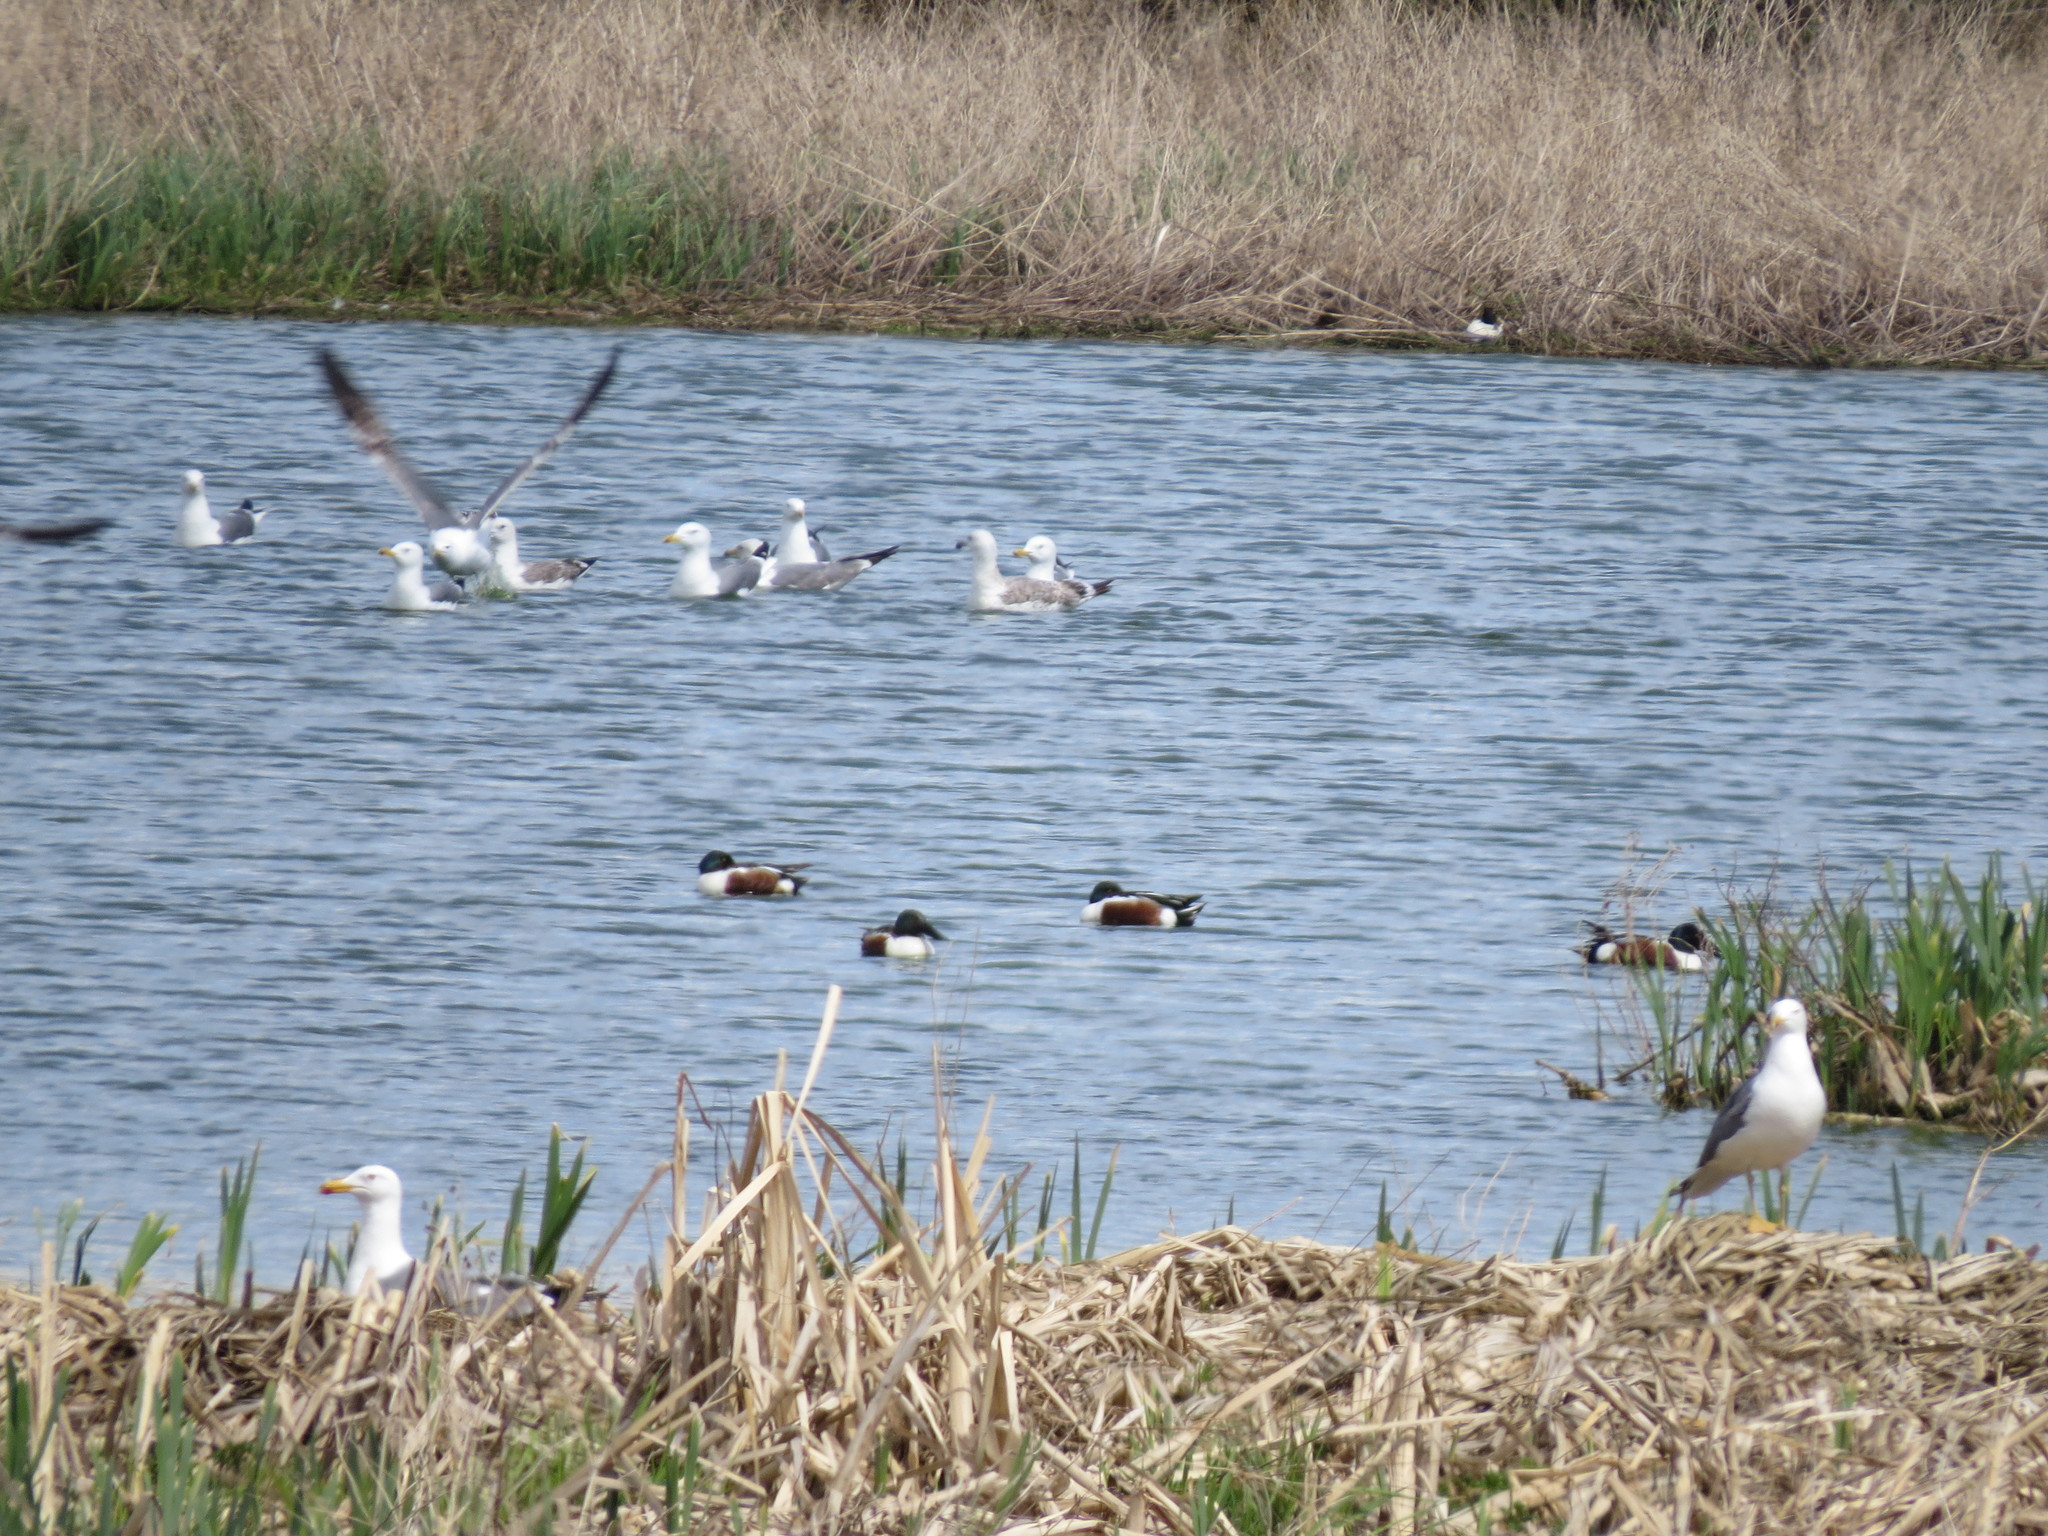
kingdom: Animalia
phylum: Chordata
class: Aves
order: Anseriformes
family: Anatidae
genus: Spatula
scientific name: Spatula clypeata
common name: Northern shoveler
